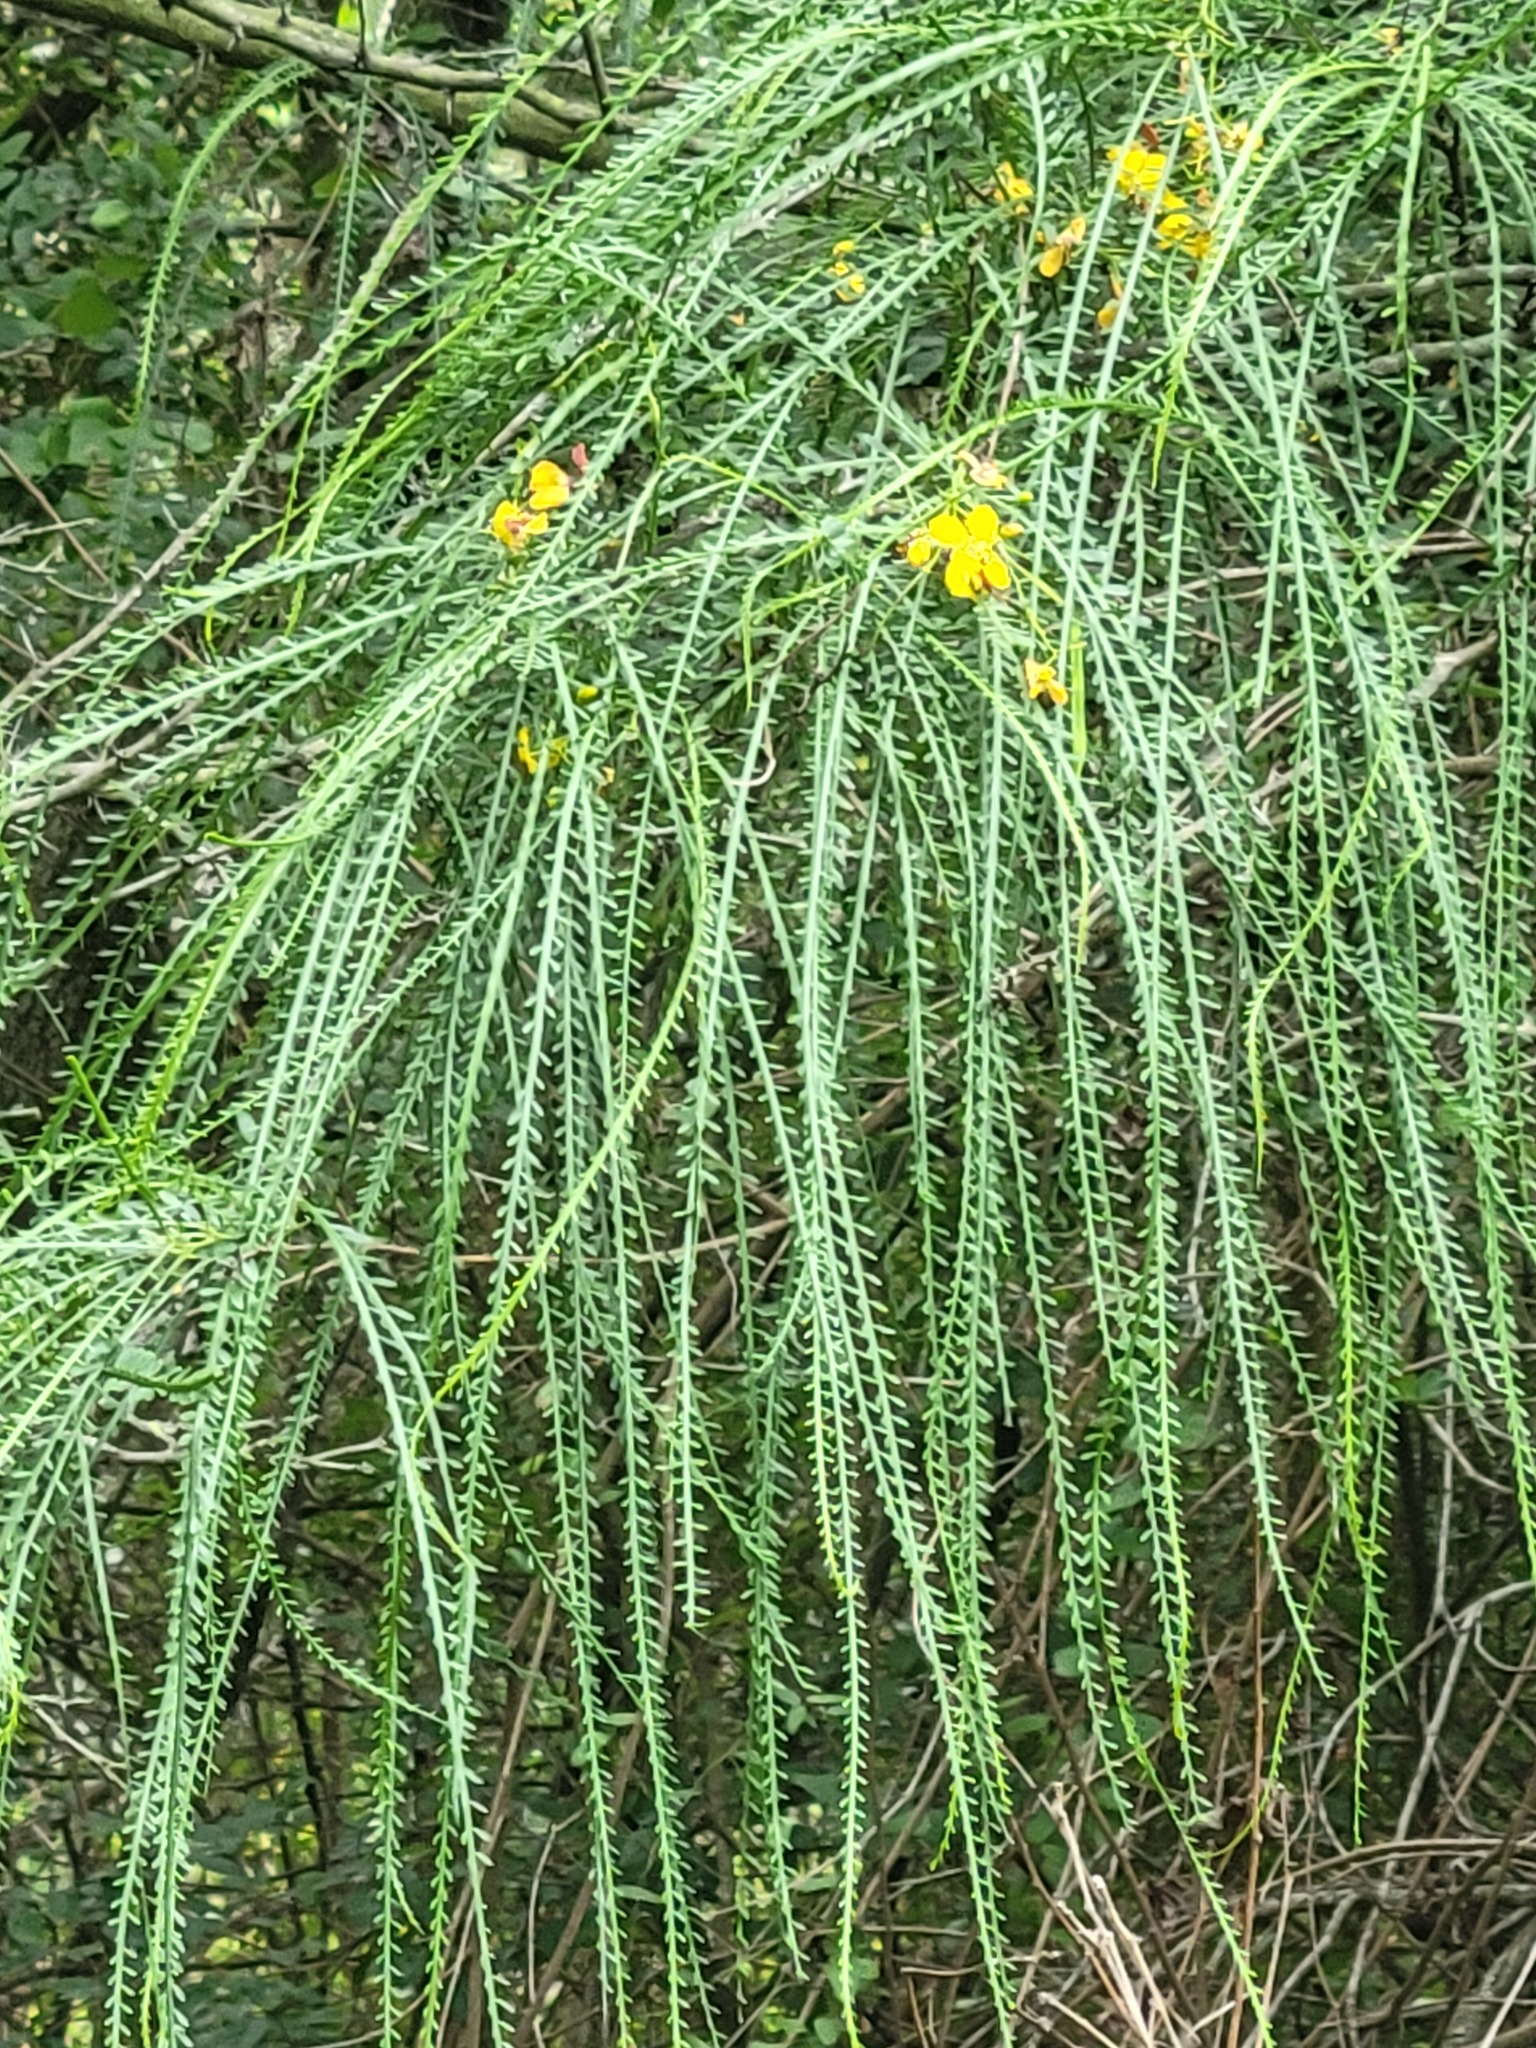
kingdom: Plantae
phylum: Tracheophyta
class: Magnoliopsida
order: Fabales
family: Fabaceae
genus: Parkinsonia
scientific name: Parkinsonia aculeata
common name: Jerusalem thorn
